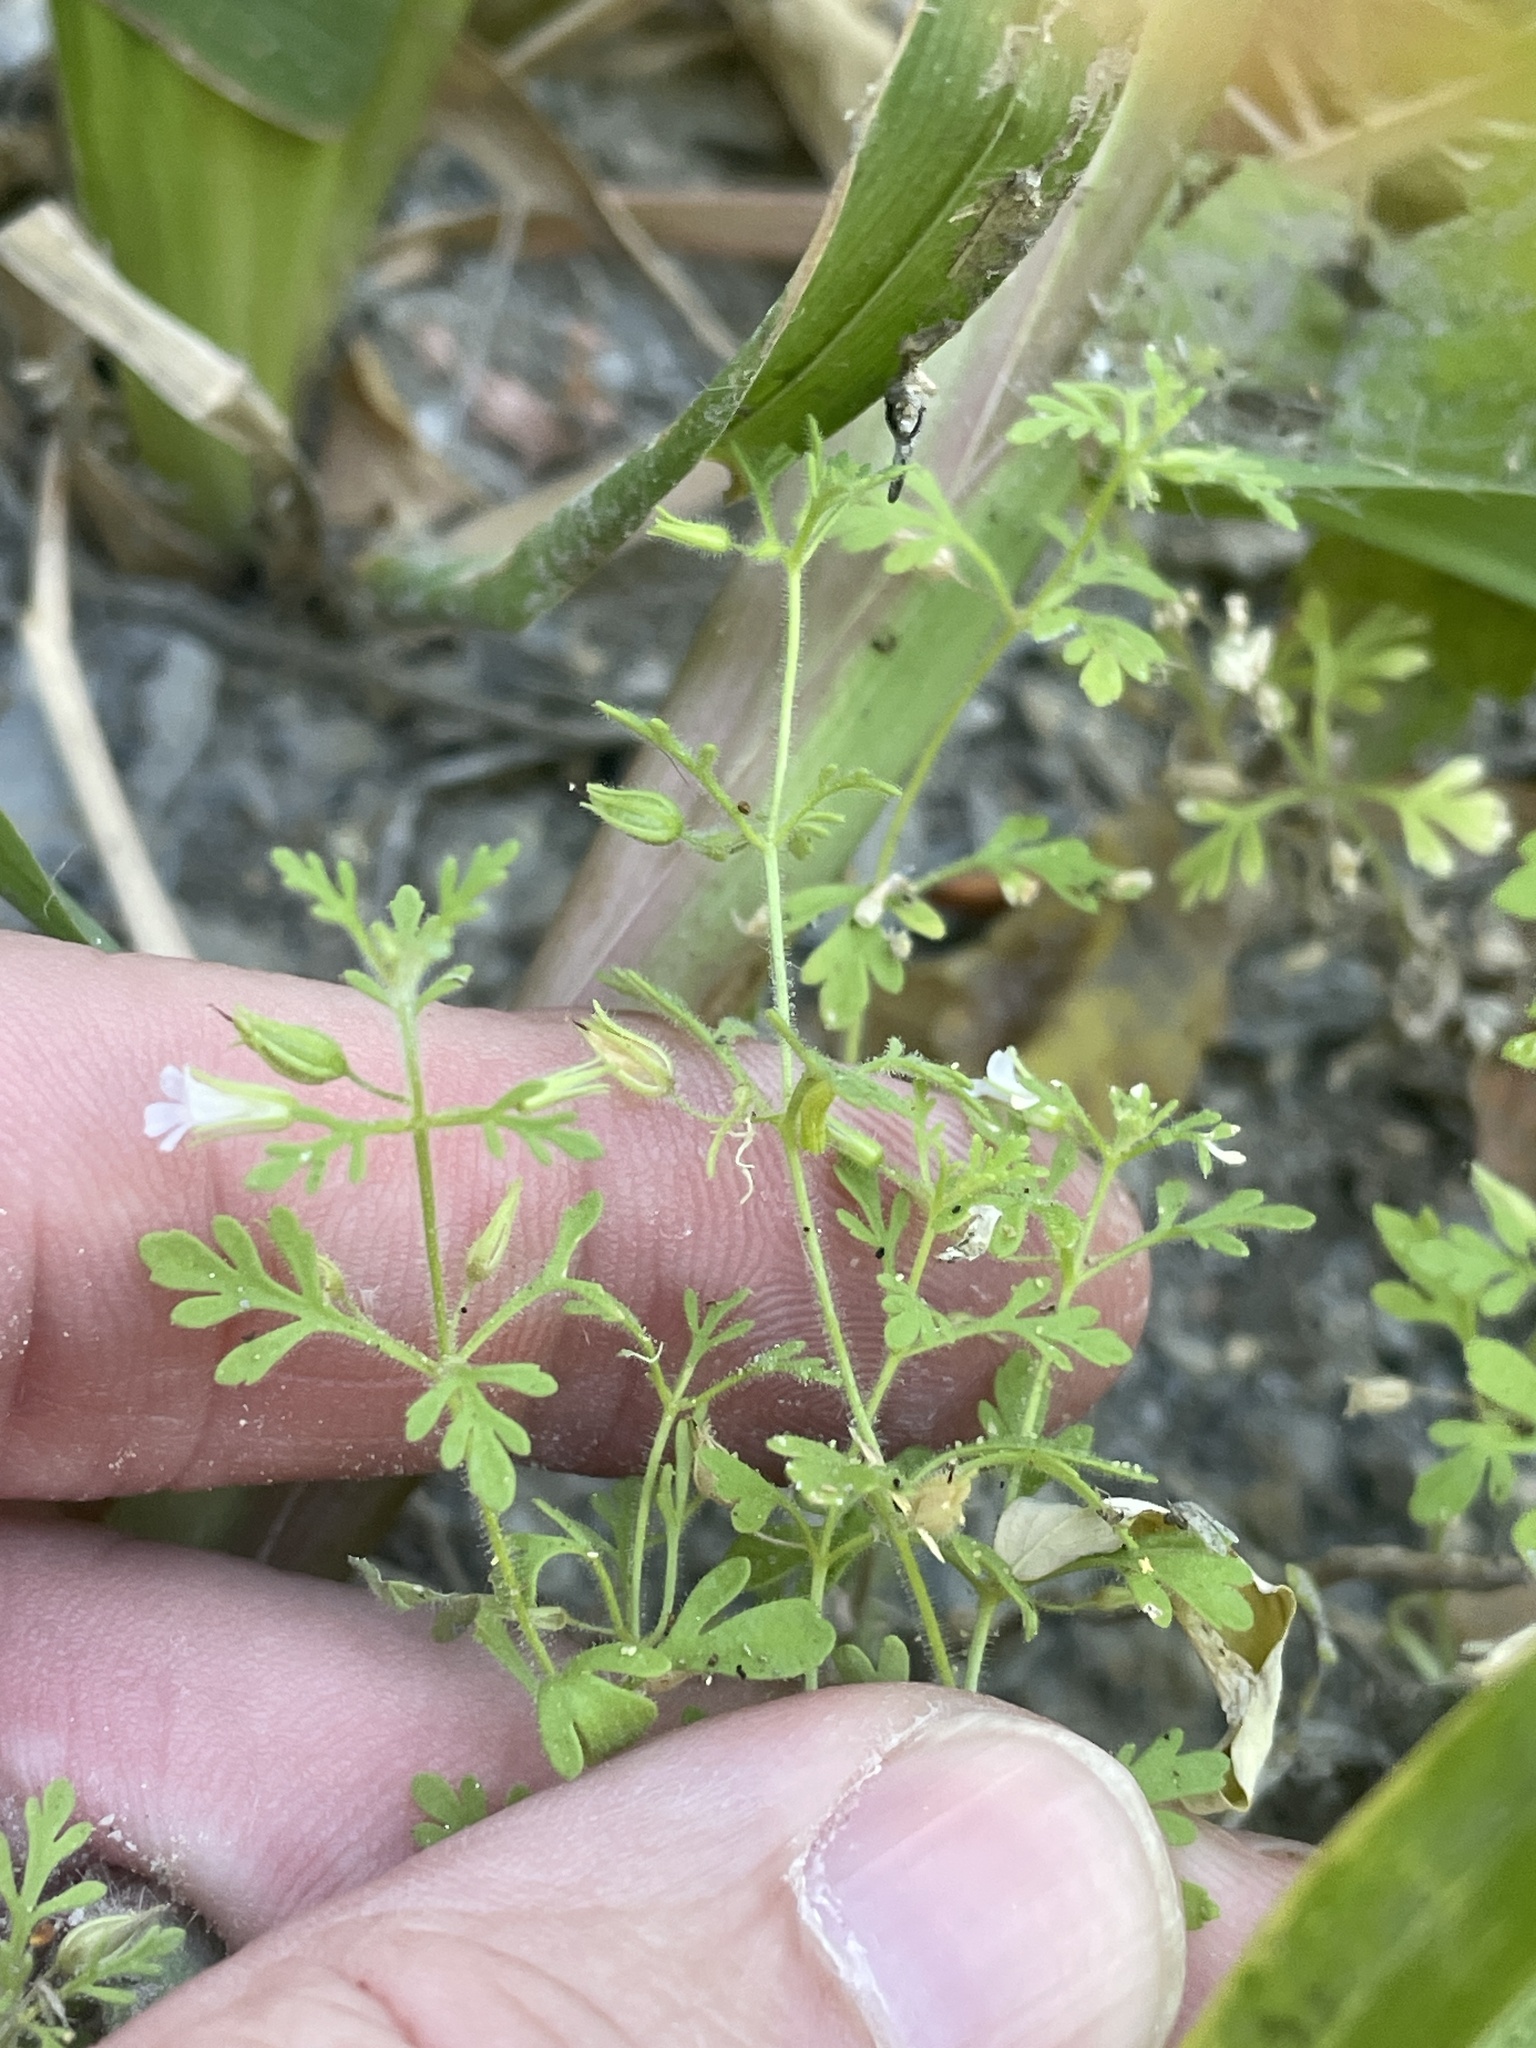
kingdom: Plantae
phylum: Tracheophyta
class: Magnoliopsida
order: Lamiales
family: Plantaginaceae
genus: Leucospora
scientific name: Leucospora multifida
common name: Narrow-leaf paleseed
